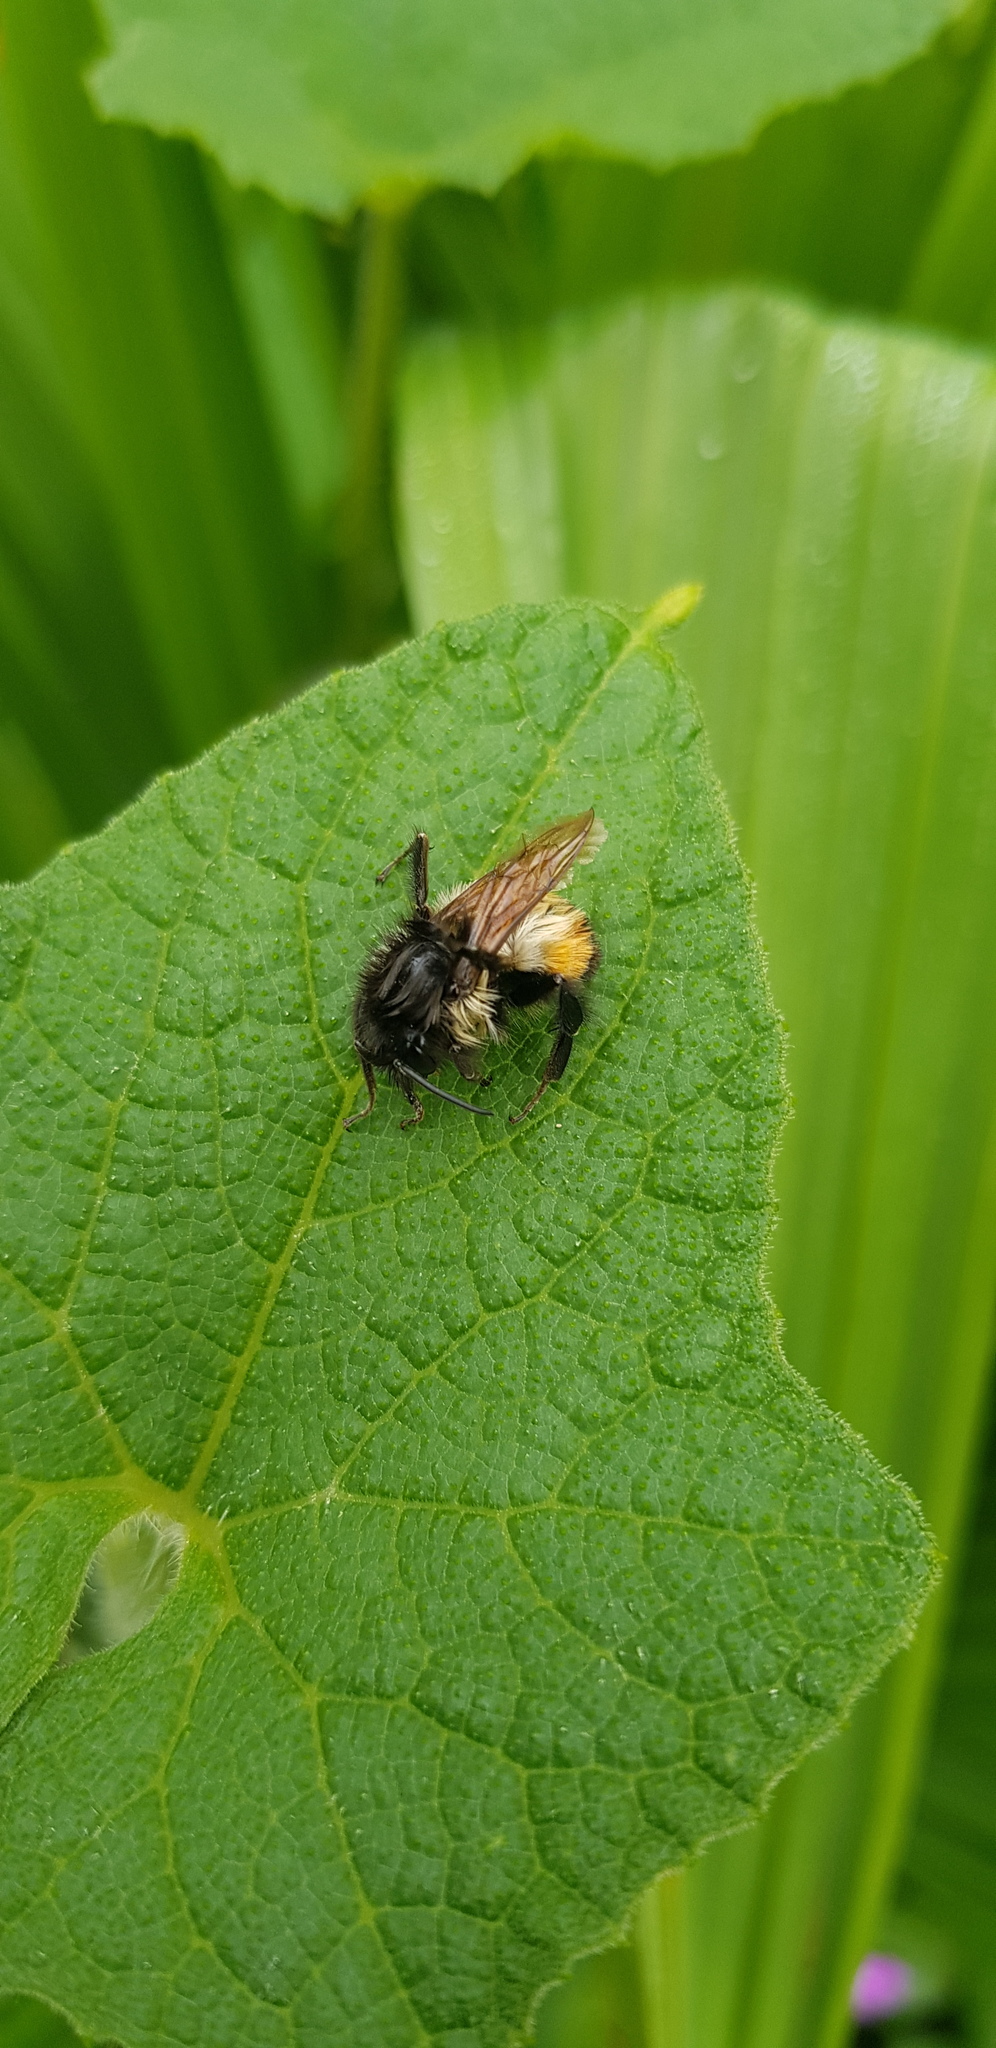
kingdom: Animalia
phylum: Arthropoda
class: Insecta
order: Hymenoptera
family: Apidae
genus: Bombus
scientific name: Bombus ephippiatus
